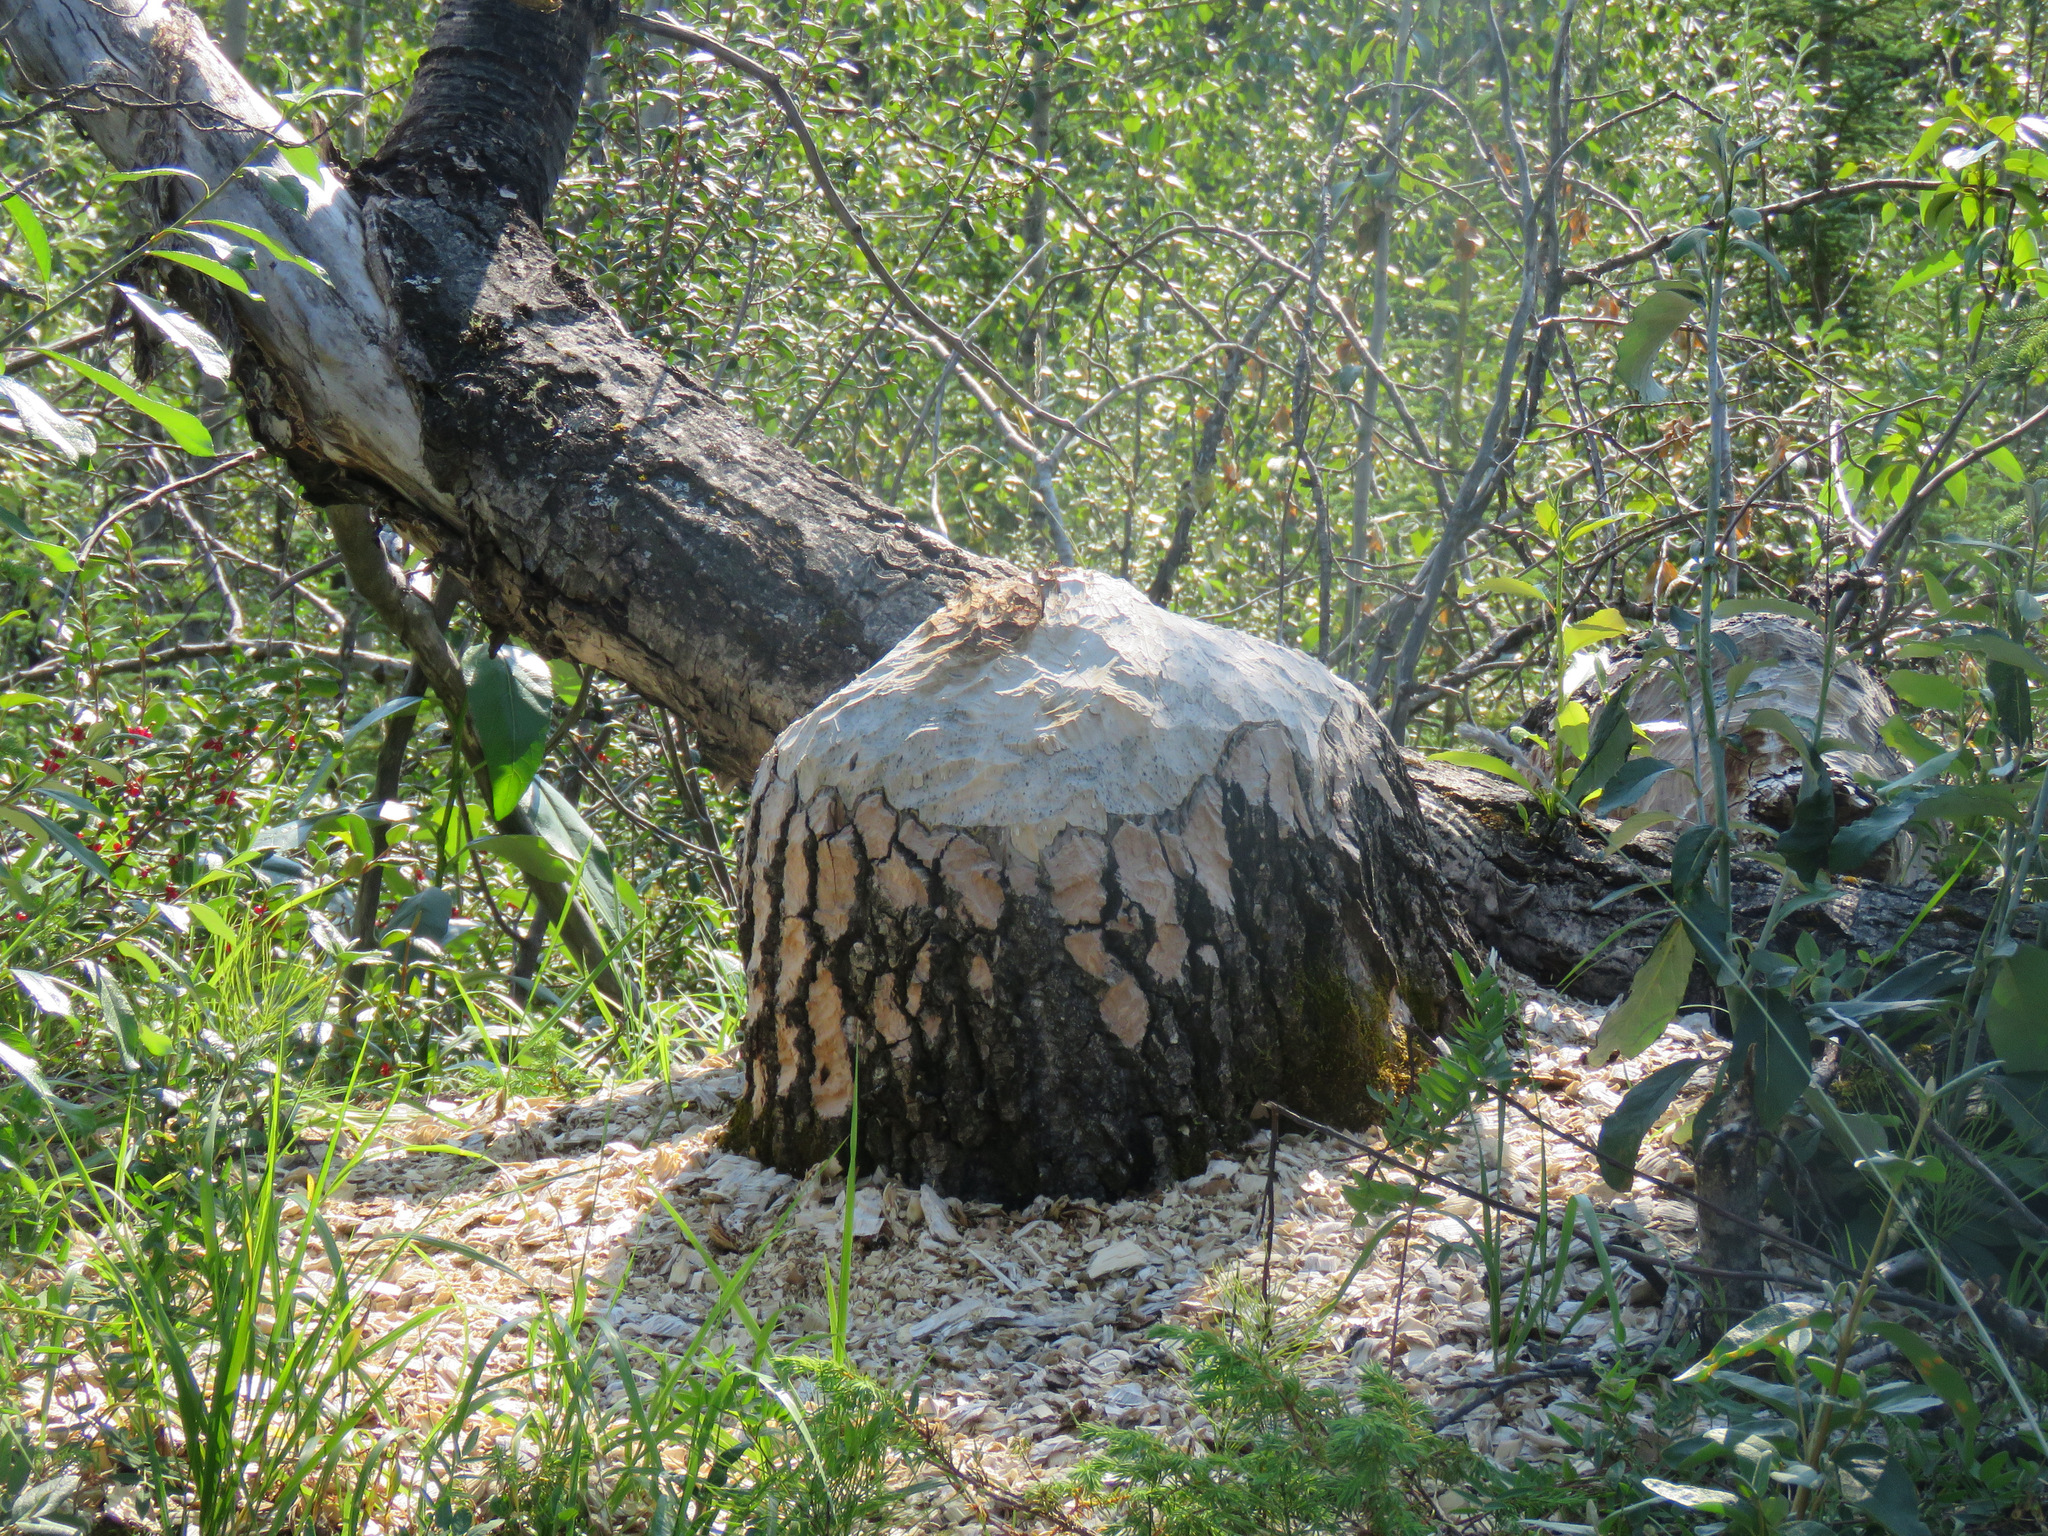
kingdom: Animalia
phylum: Chordata
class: Mammalia
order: Rodentia
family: Castoridae
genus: Castor
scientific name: Castor canadensis
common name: American beaver
